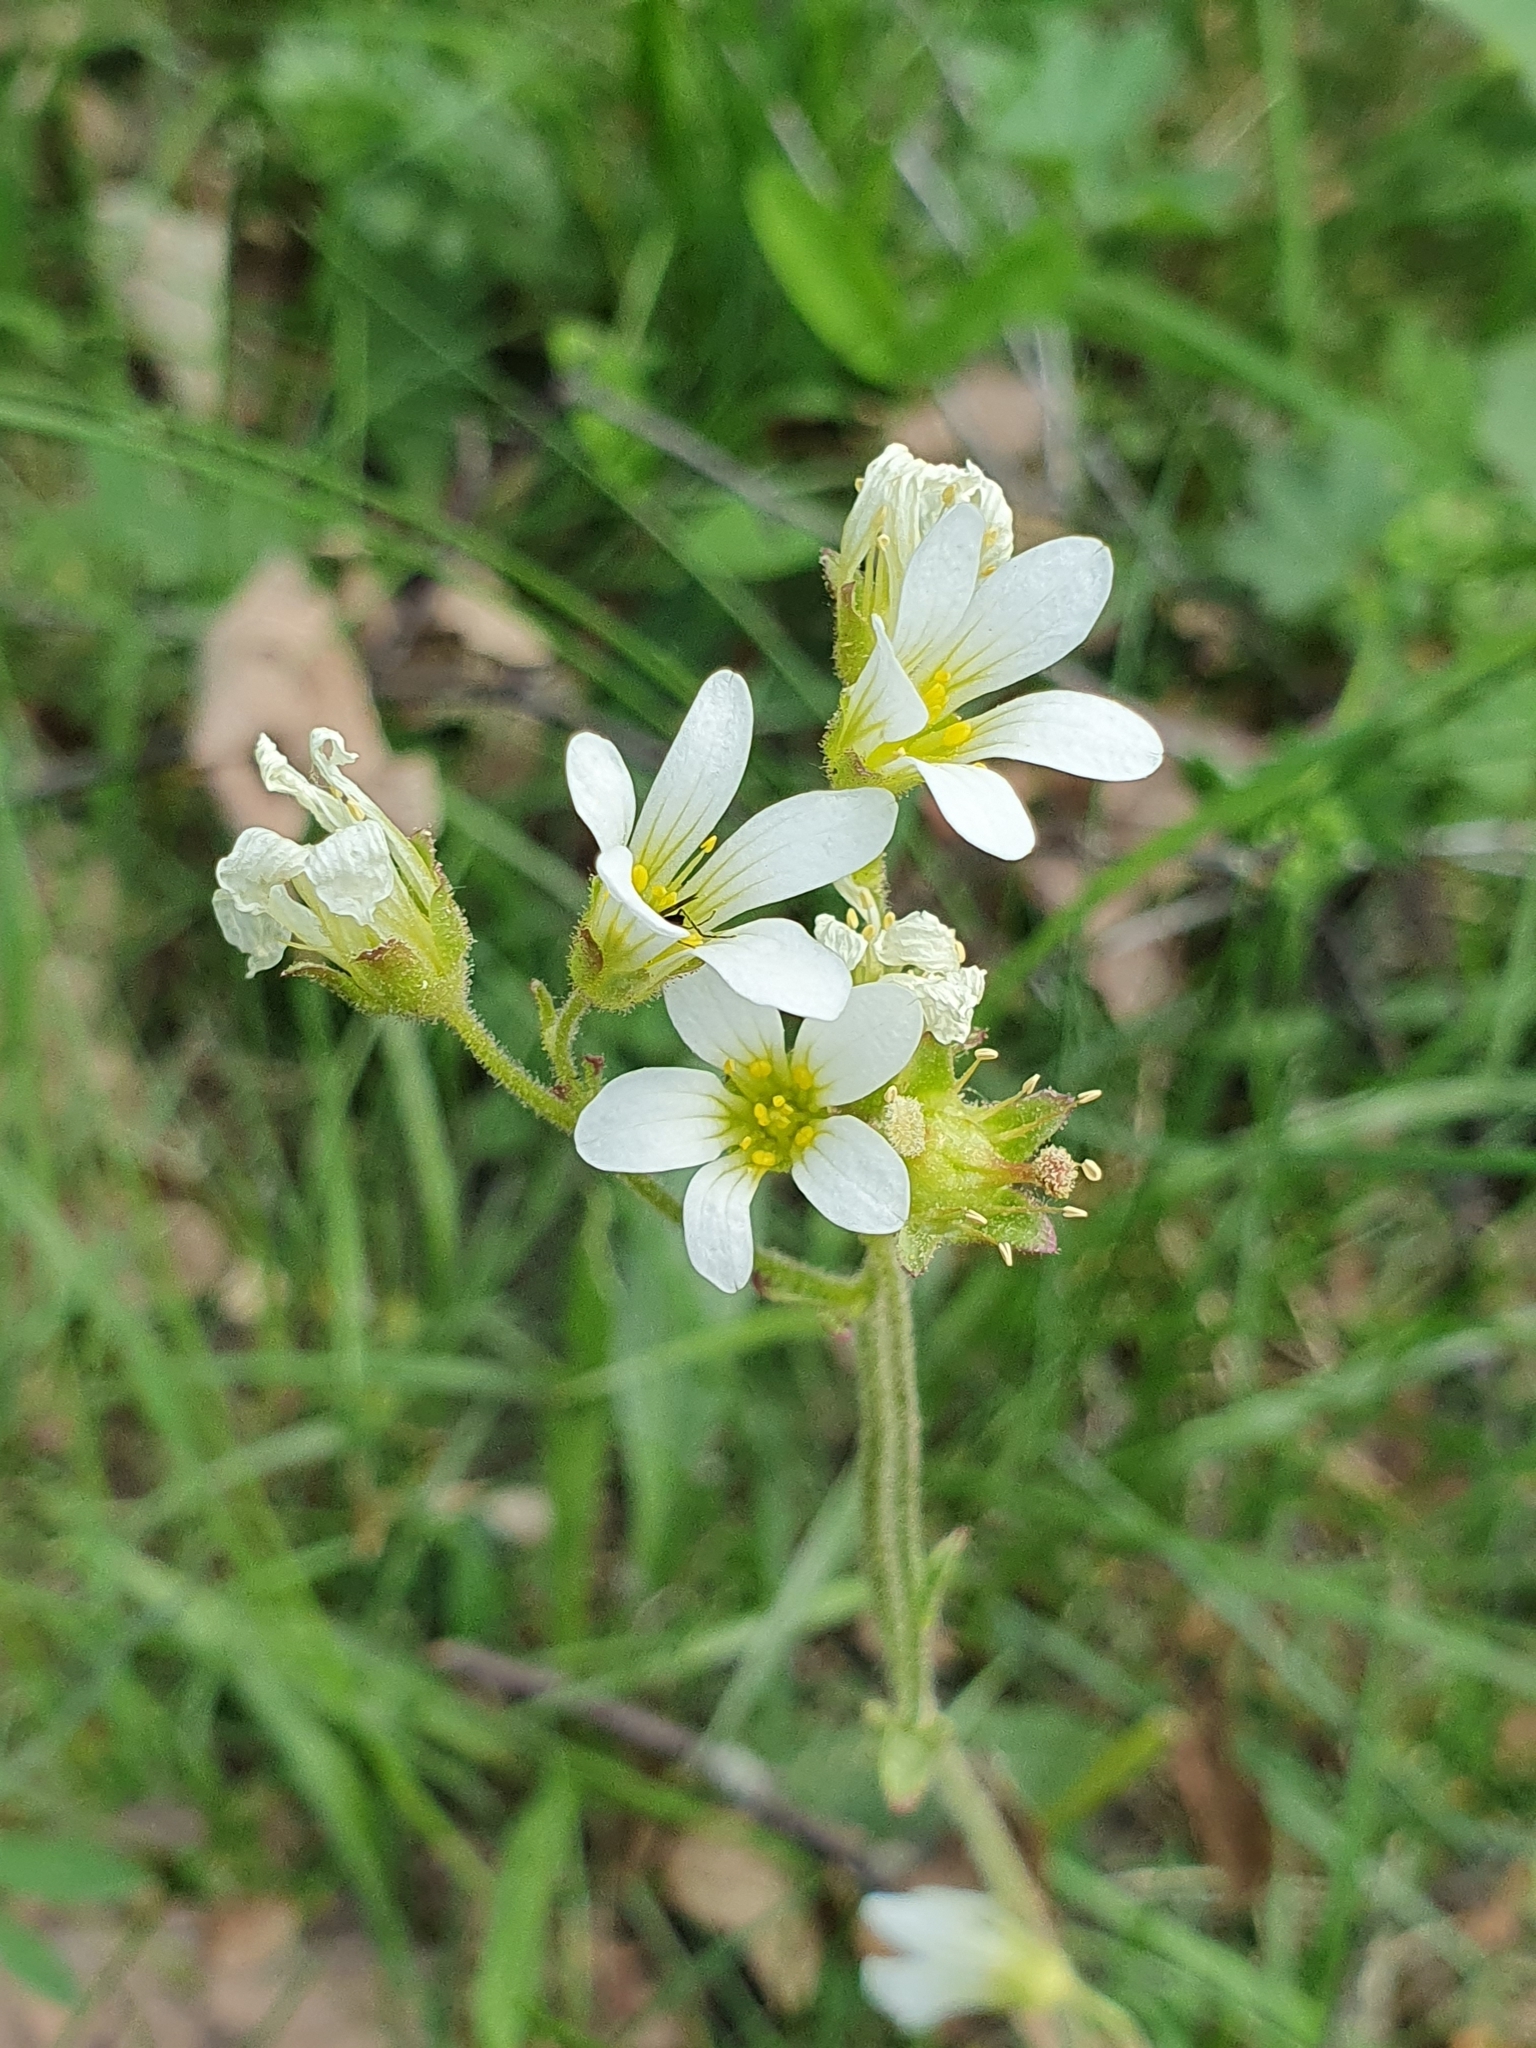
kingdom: Plantae
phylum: Tracheophyta
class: Magnoliopsida
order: Saxifragales
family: Saxifragaceae
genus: Saxifraga
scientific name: Saxifraga granulata
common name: Meadow saxifrage
